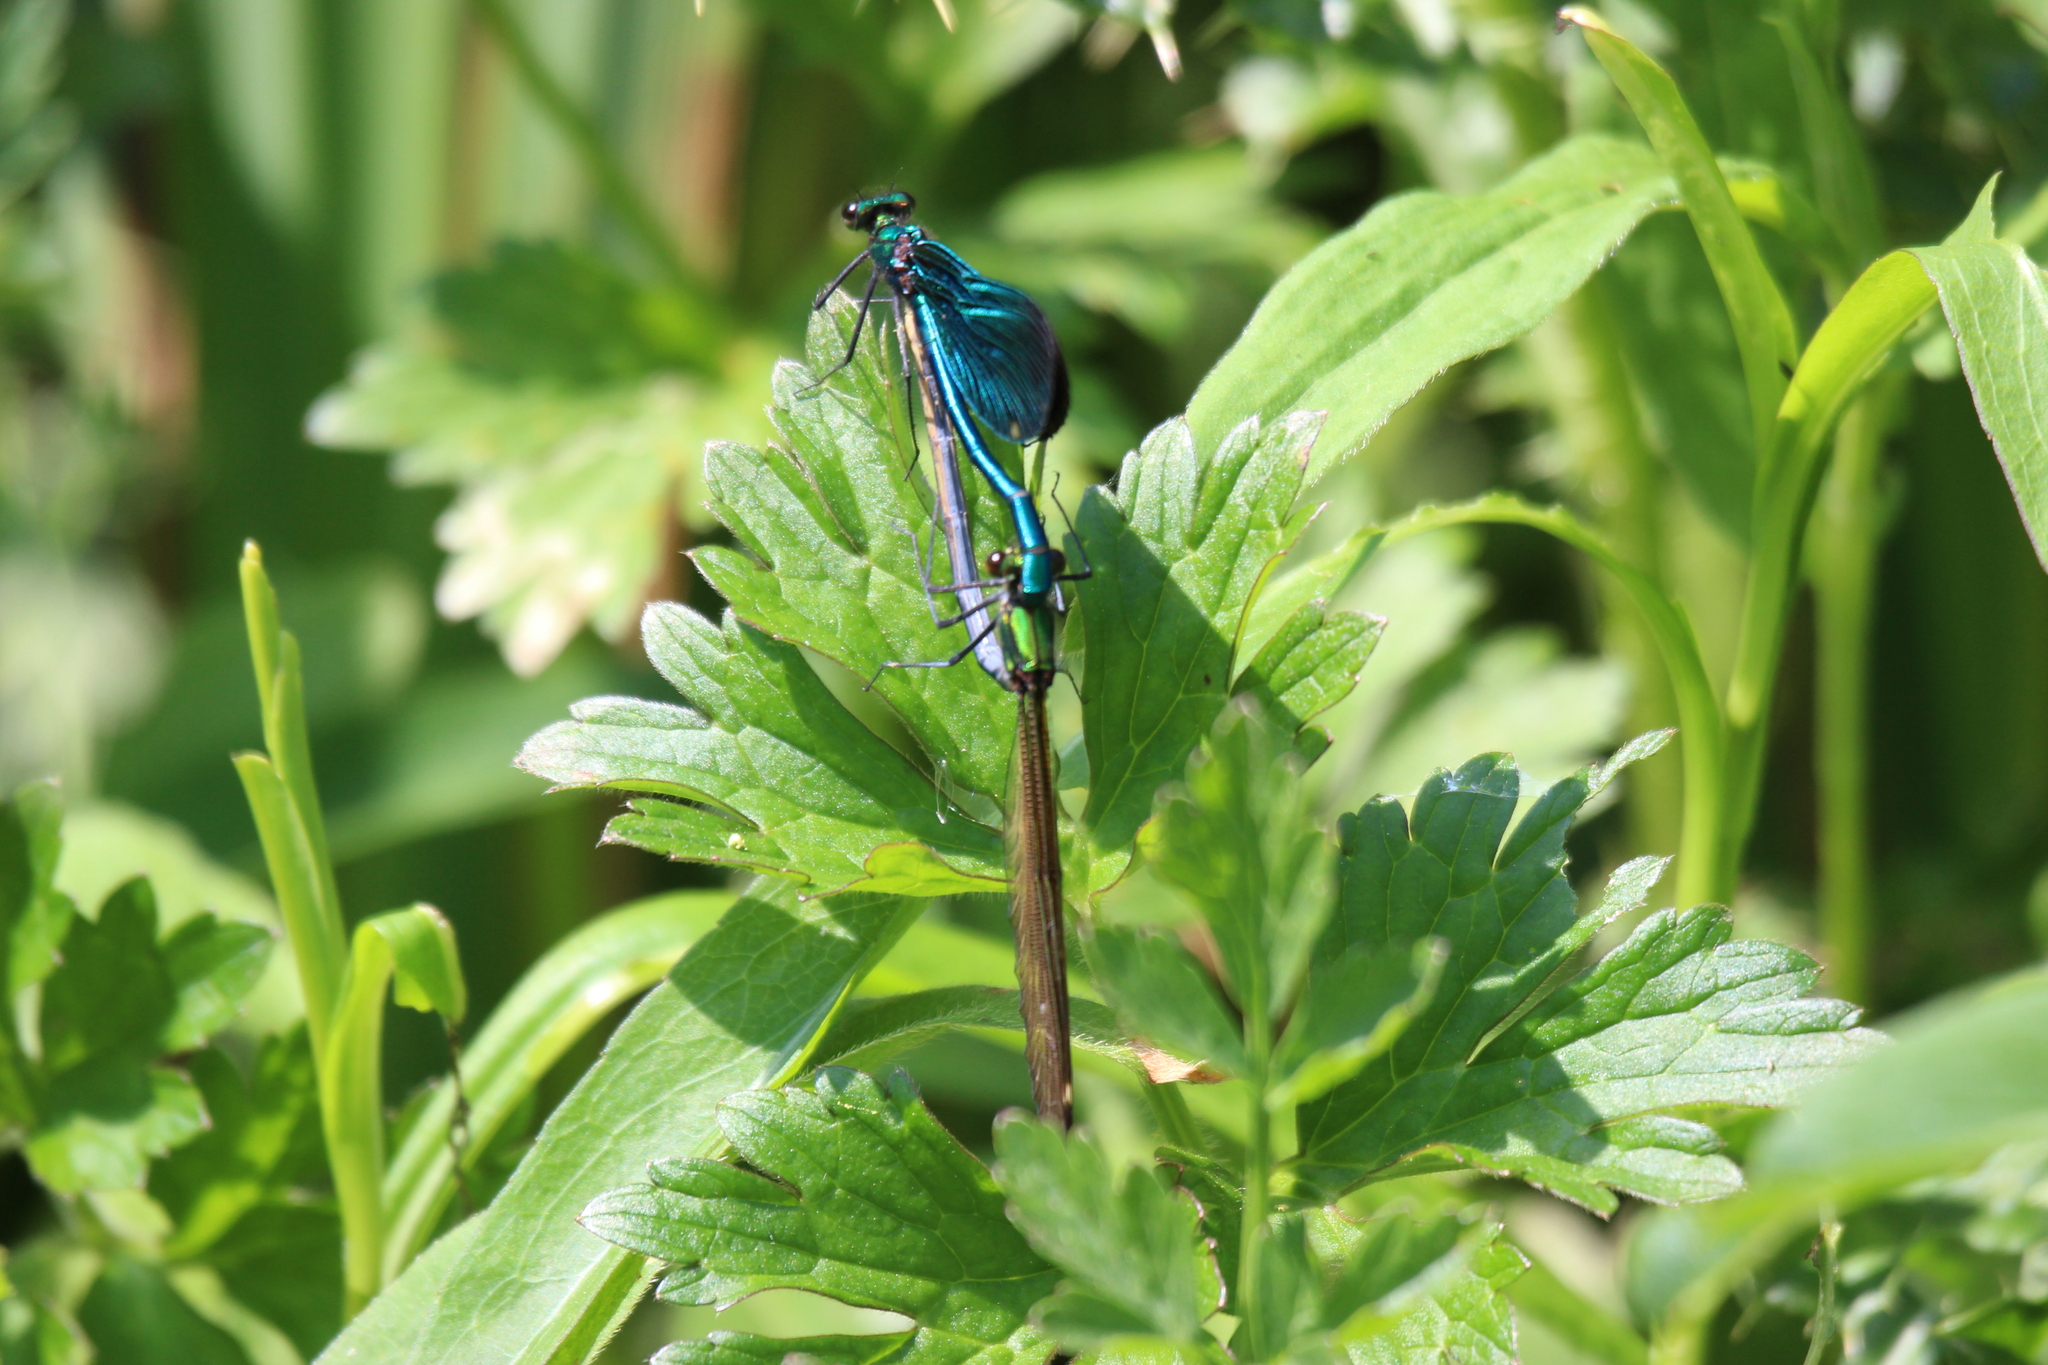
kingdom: Animalia
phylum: Arthropoda
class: Insecta
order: Odonata
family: Calopterygidae
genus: Calopteryx
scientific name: Calopteryx virgo
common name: Beautiful demoiselle
